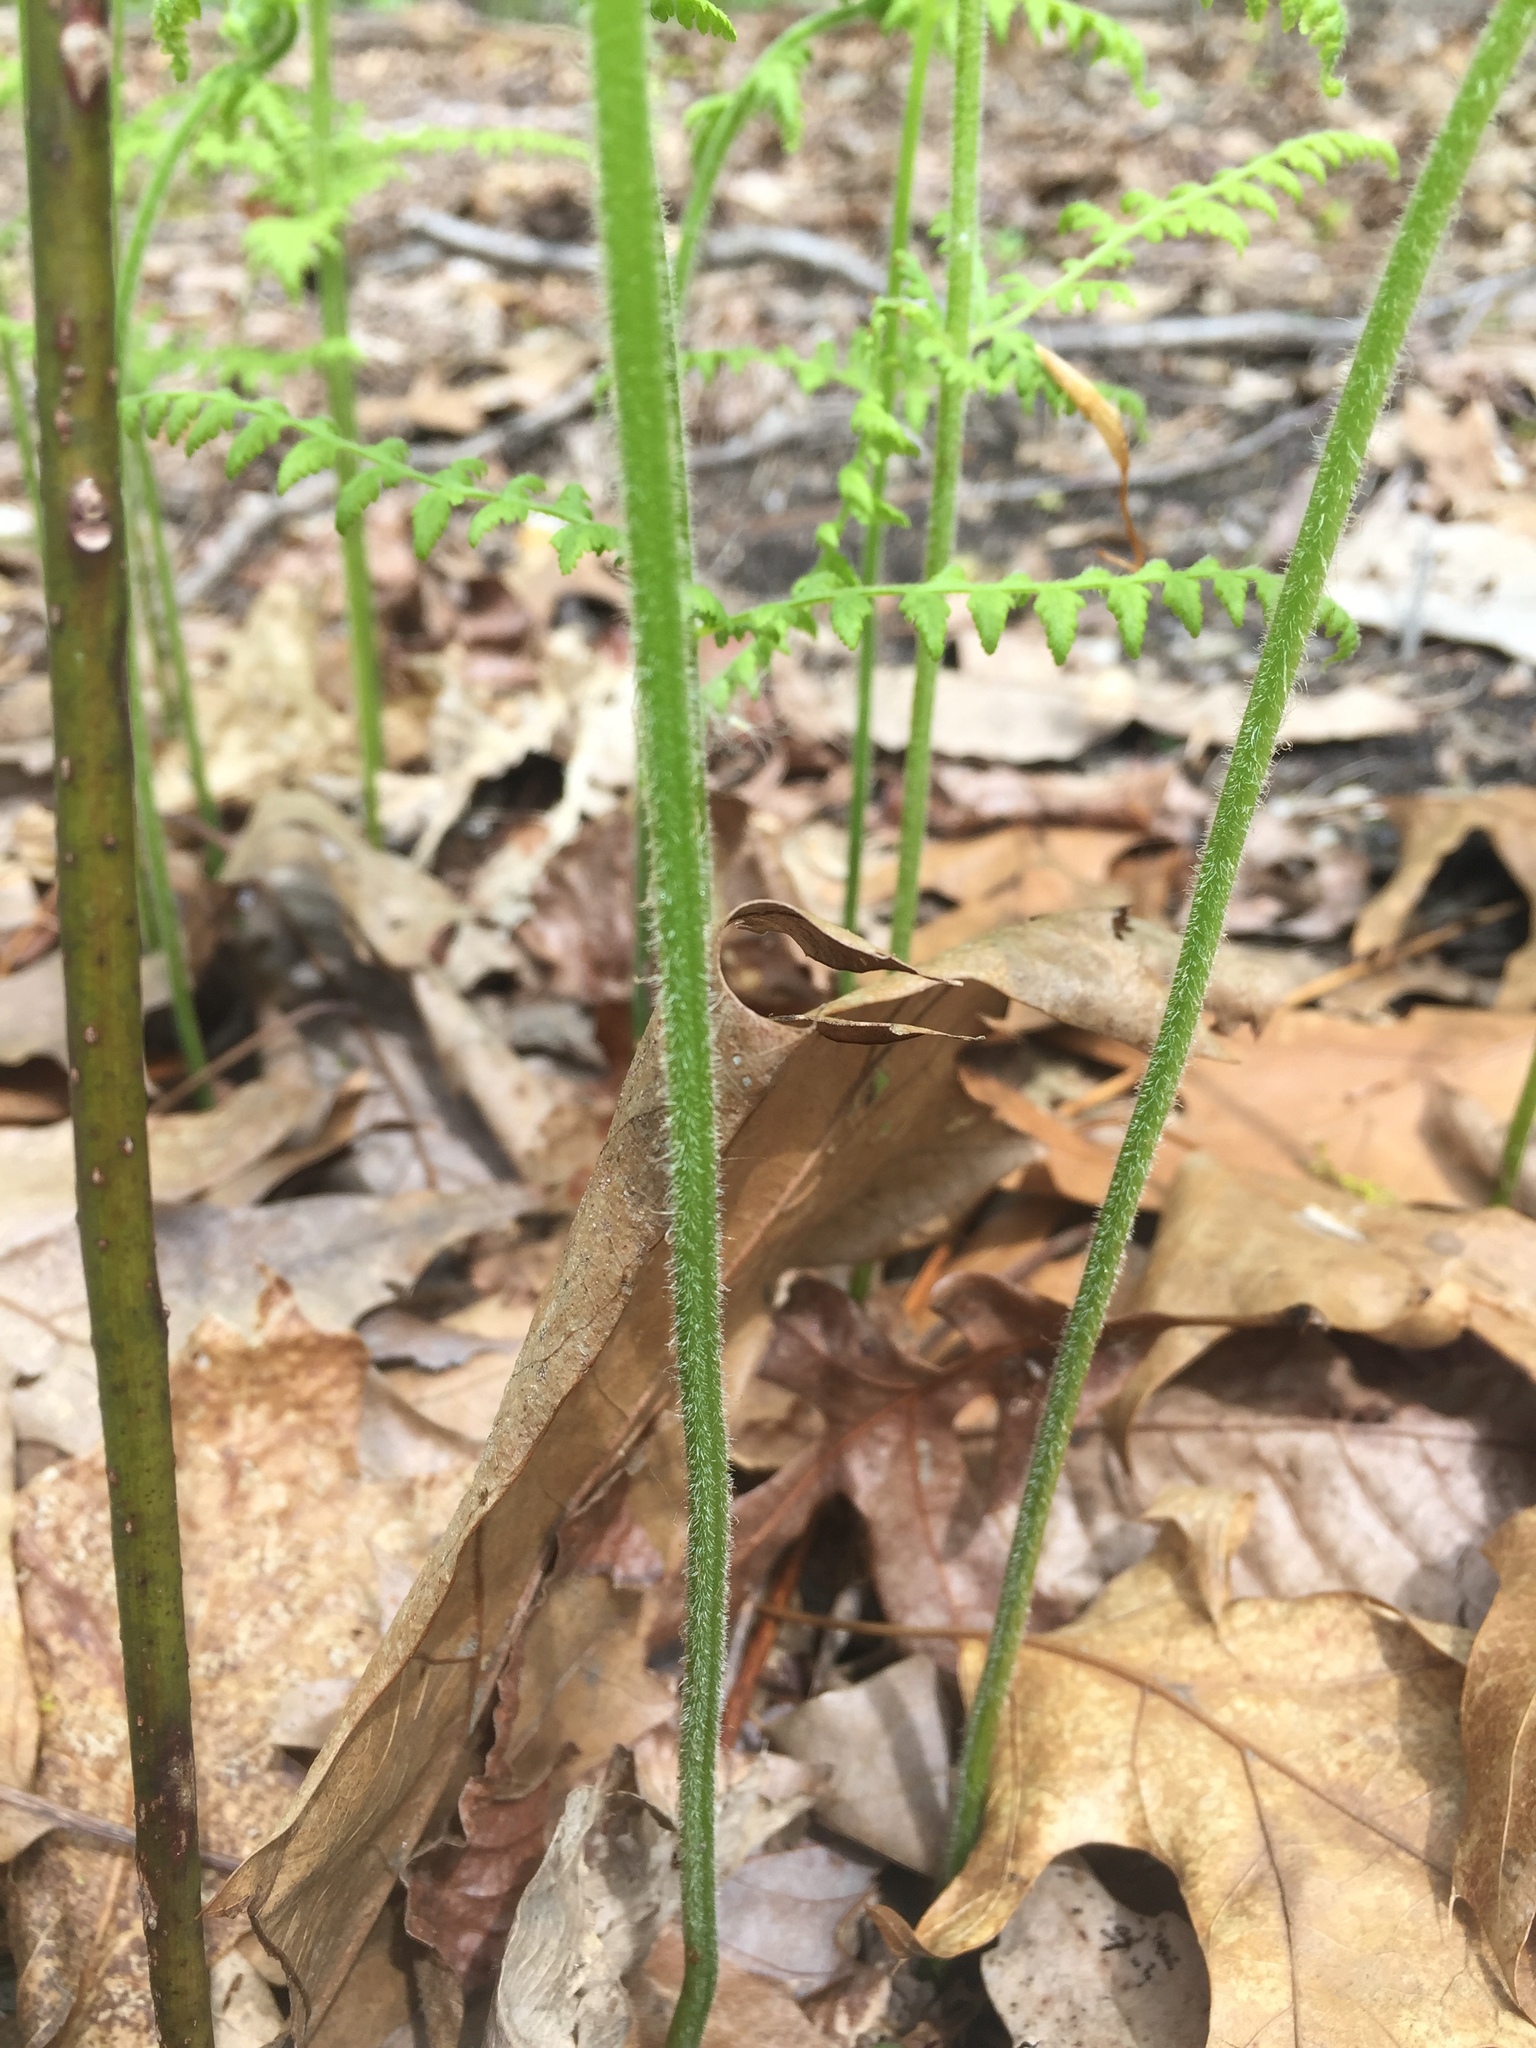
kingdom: Plantae
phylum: Tracheophyta
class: Polypodiopsida
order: Polypodiales
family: Dennstaedtiaceae
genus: Sitobolium
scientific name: Sitobolium punctilobum
